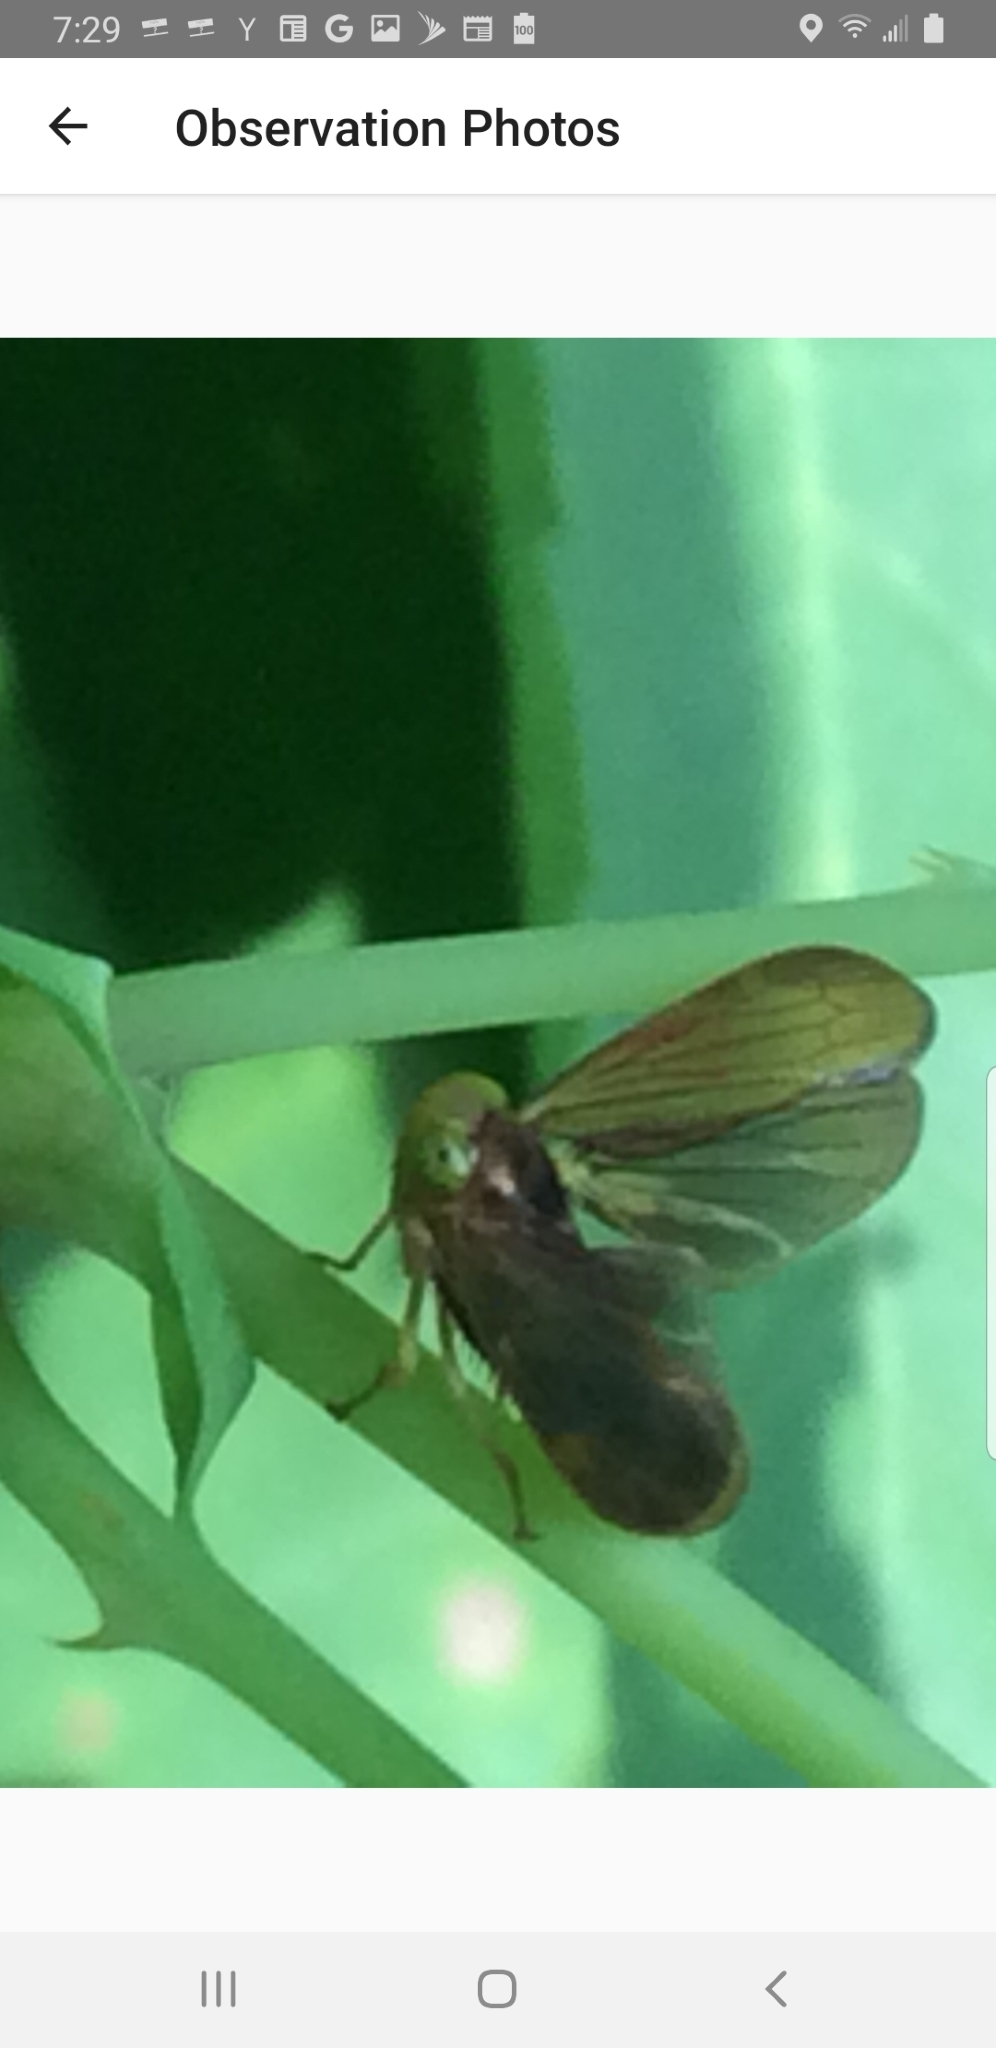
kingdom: Animalia
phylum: Arthropoda
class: Insecta
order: Hemiptera
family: Cicadellidae
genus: Jikradia
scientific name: Jikradia olitoria
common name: Coppery leafhopper
